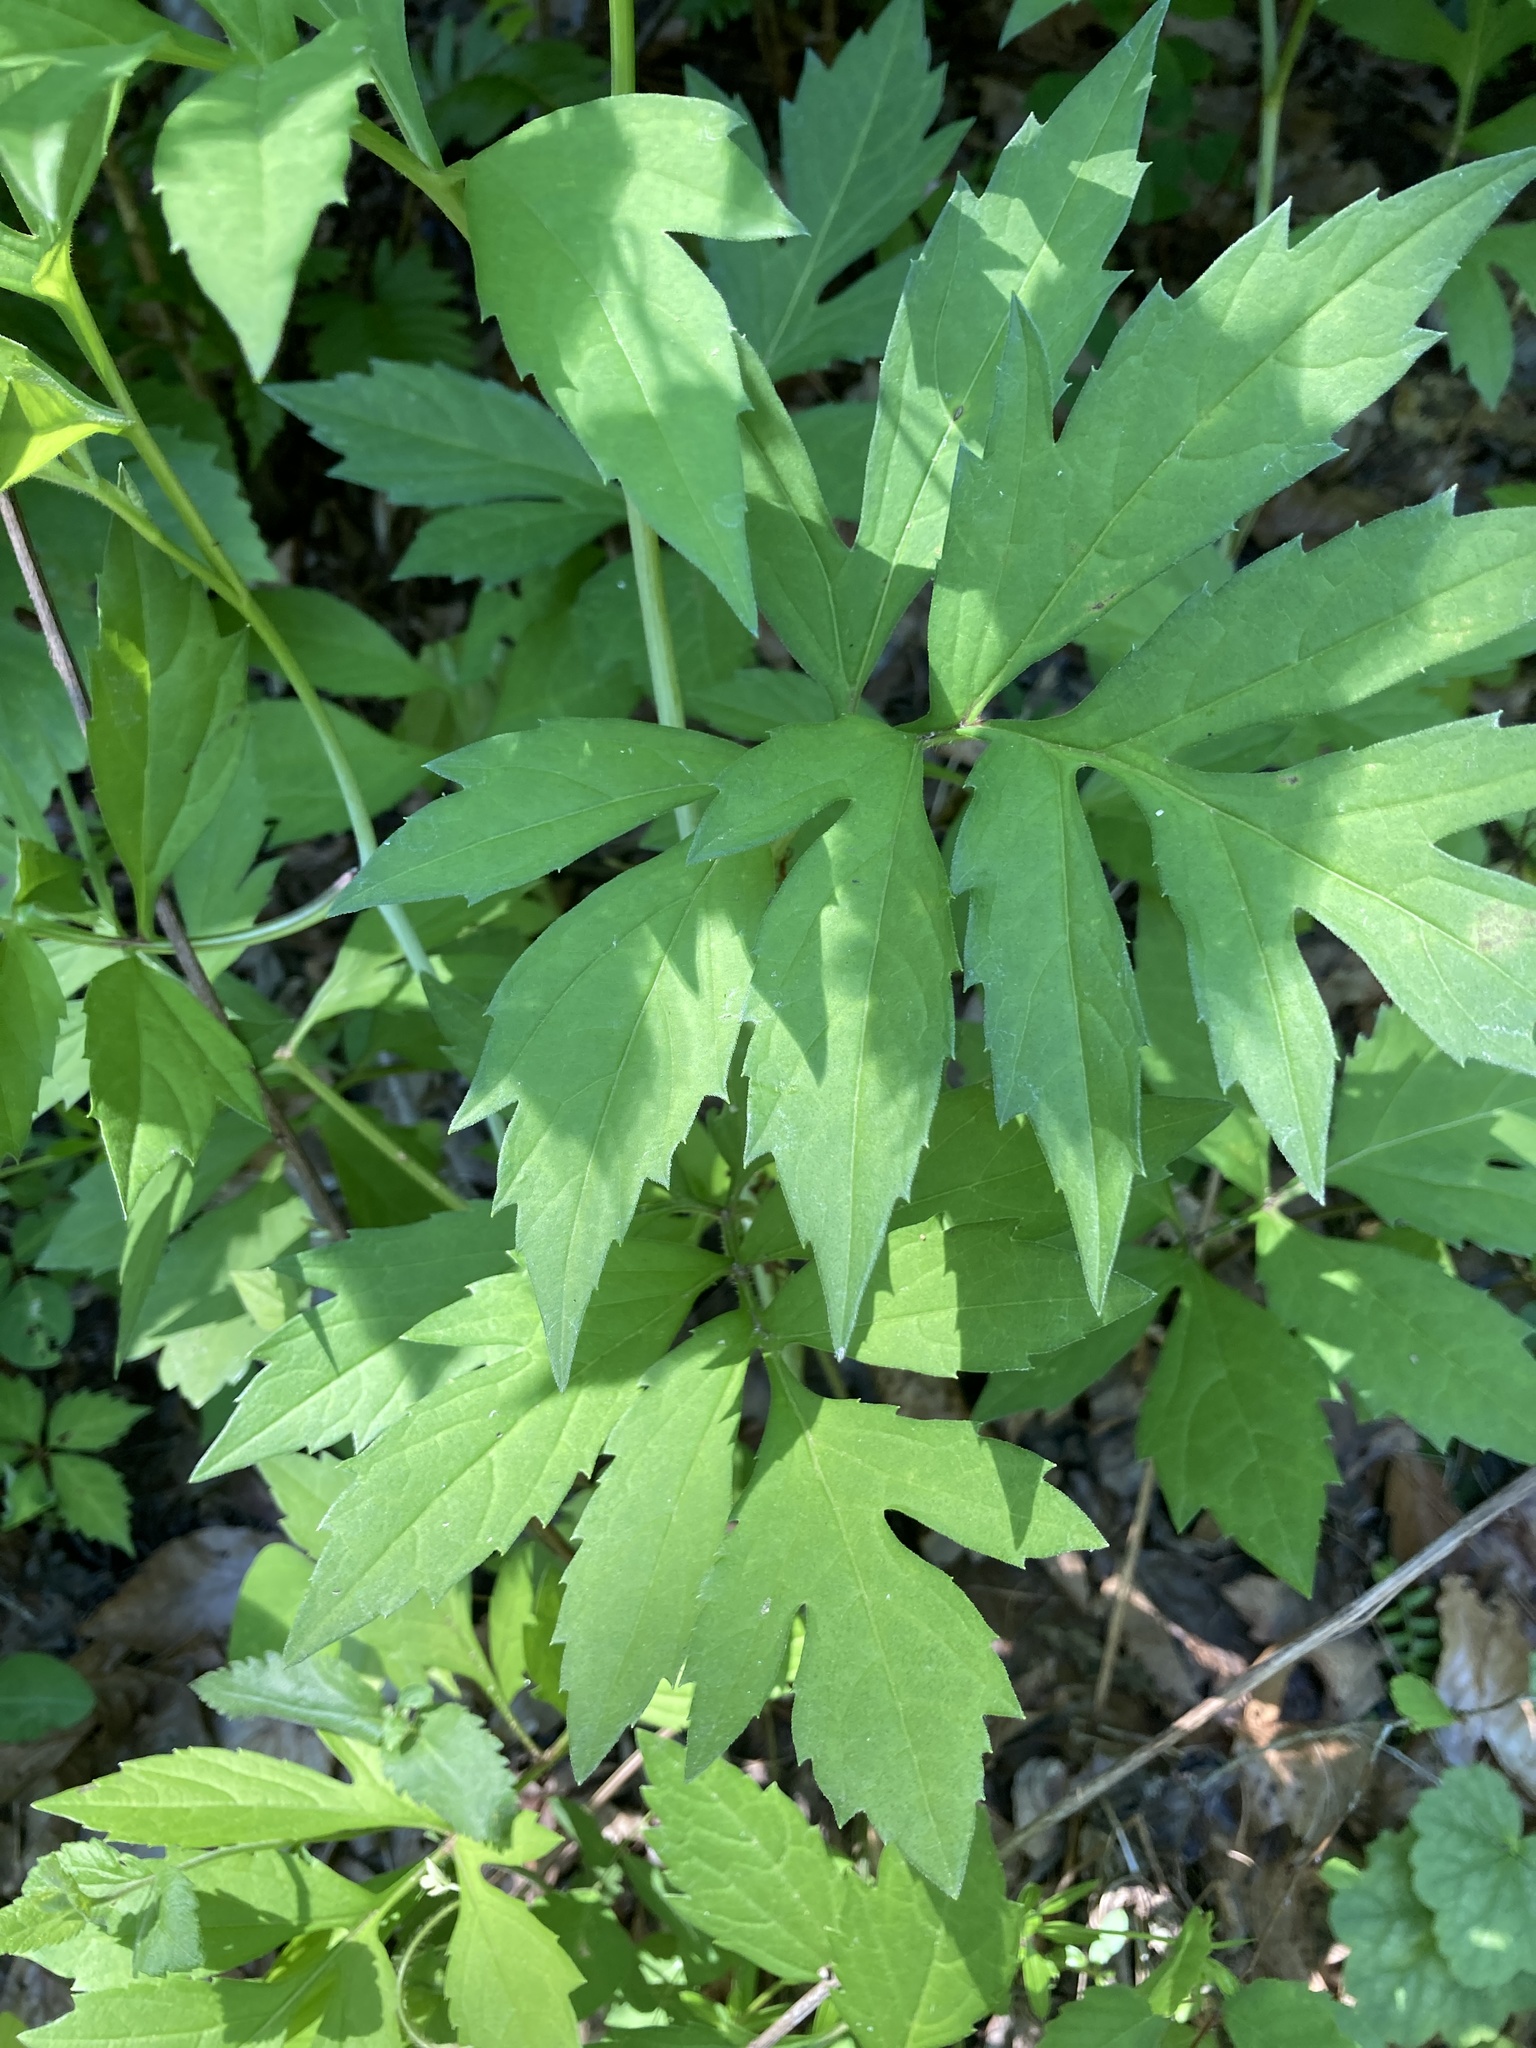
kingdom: Plantae
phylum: Tracheophyta
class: Magnoliopsida
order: Asterales
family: Asteraceae
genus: Rudbeckia
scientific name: Rudbeckia laciniata
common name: Coneflower
